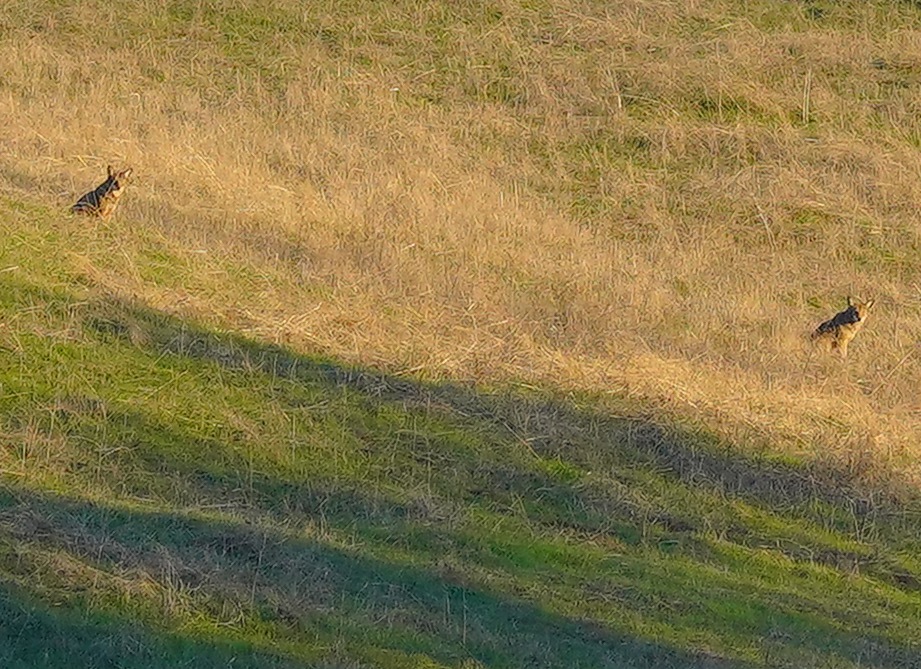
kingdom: Animalia
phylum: Chordata
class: Mammalia
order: Carnivora
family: Canidae
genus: Canis
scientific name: Canis latrans
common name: Coyote
